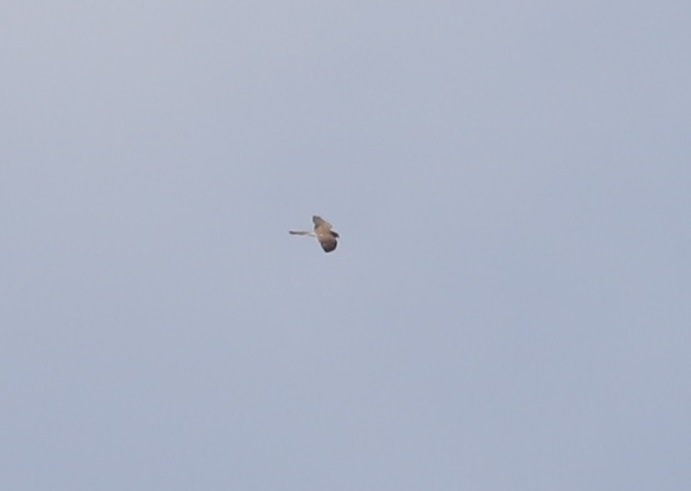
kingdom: Animalia
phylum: Chordata
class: Aves
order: Falconiformes
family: Falconidae
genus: Falco
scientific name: Falco tinnunculus
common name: Common kestrel
